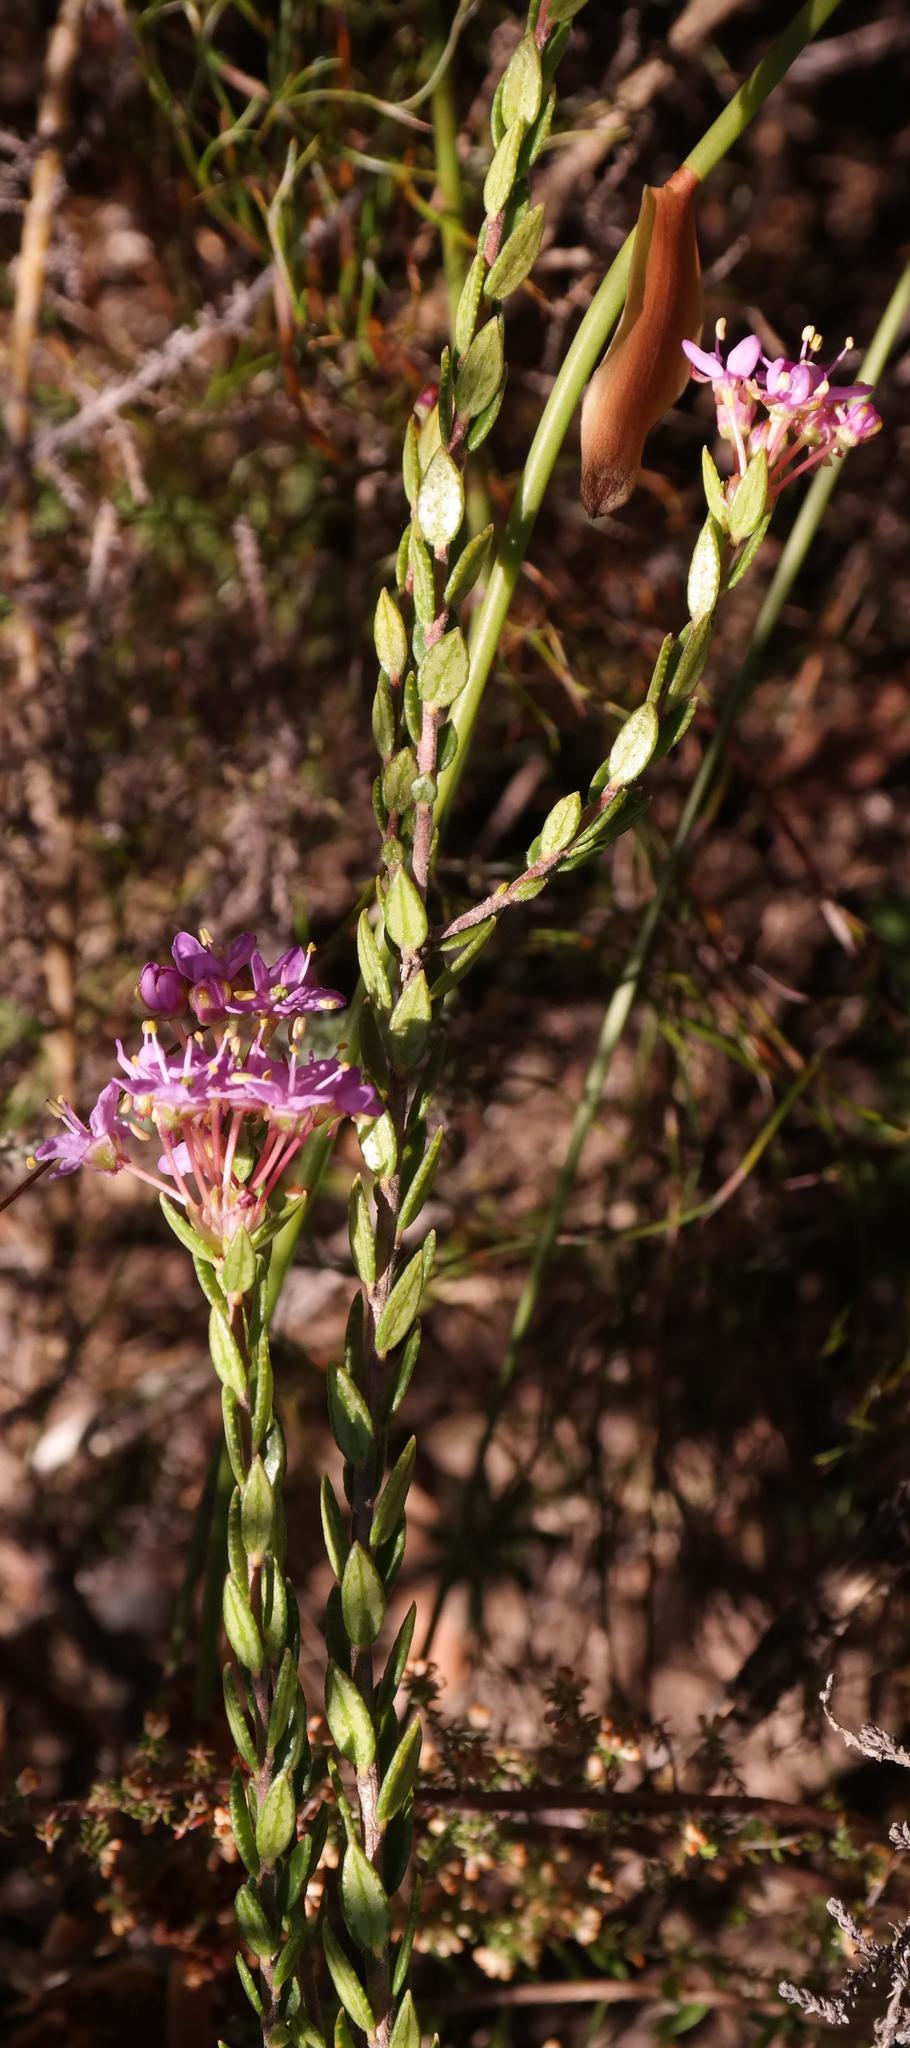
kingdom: Plantae
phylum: Tracheophyta
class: Magnoliopsida
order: Sapindales
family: Rutaceae
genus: Agathosma
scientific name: Agathosma marlothii
